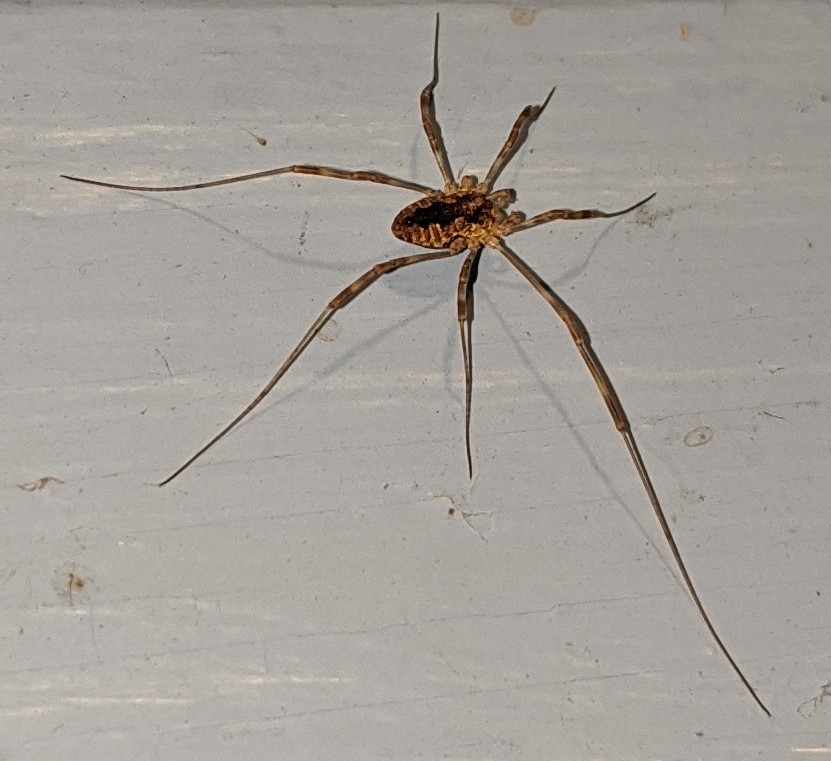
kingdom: Animalia
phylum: Arthropoda
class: Arachnida
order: Opiliones
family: Phalangiidae
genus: Odiellus
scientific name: Odiellus pictus
